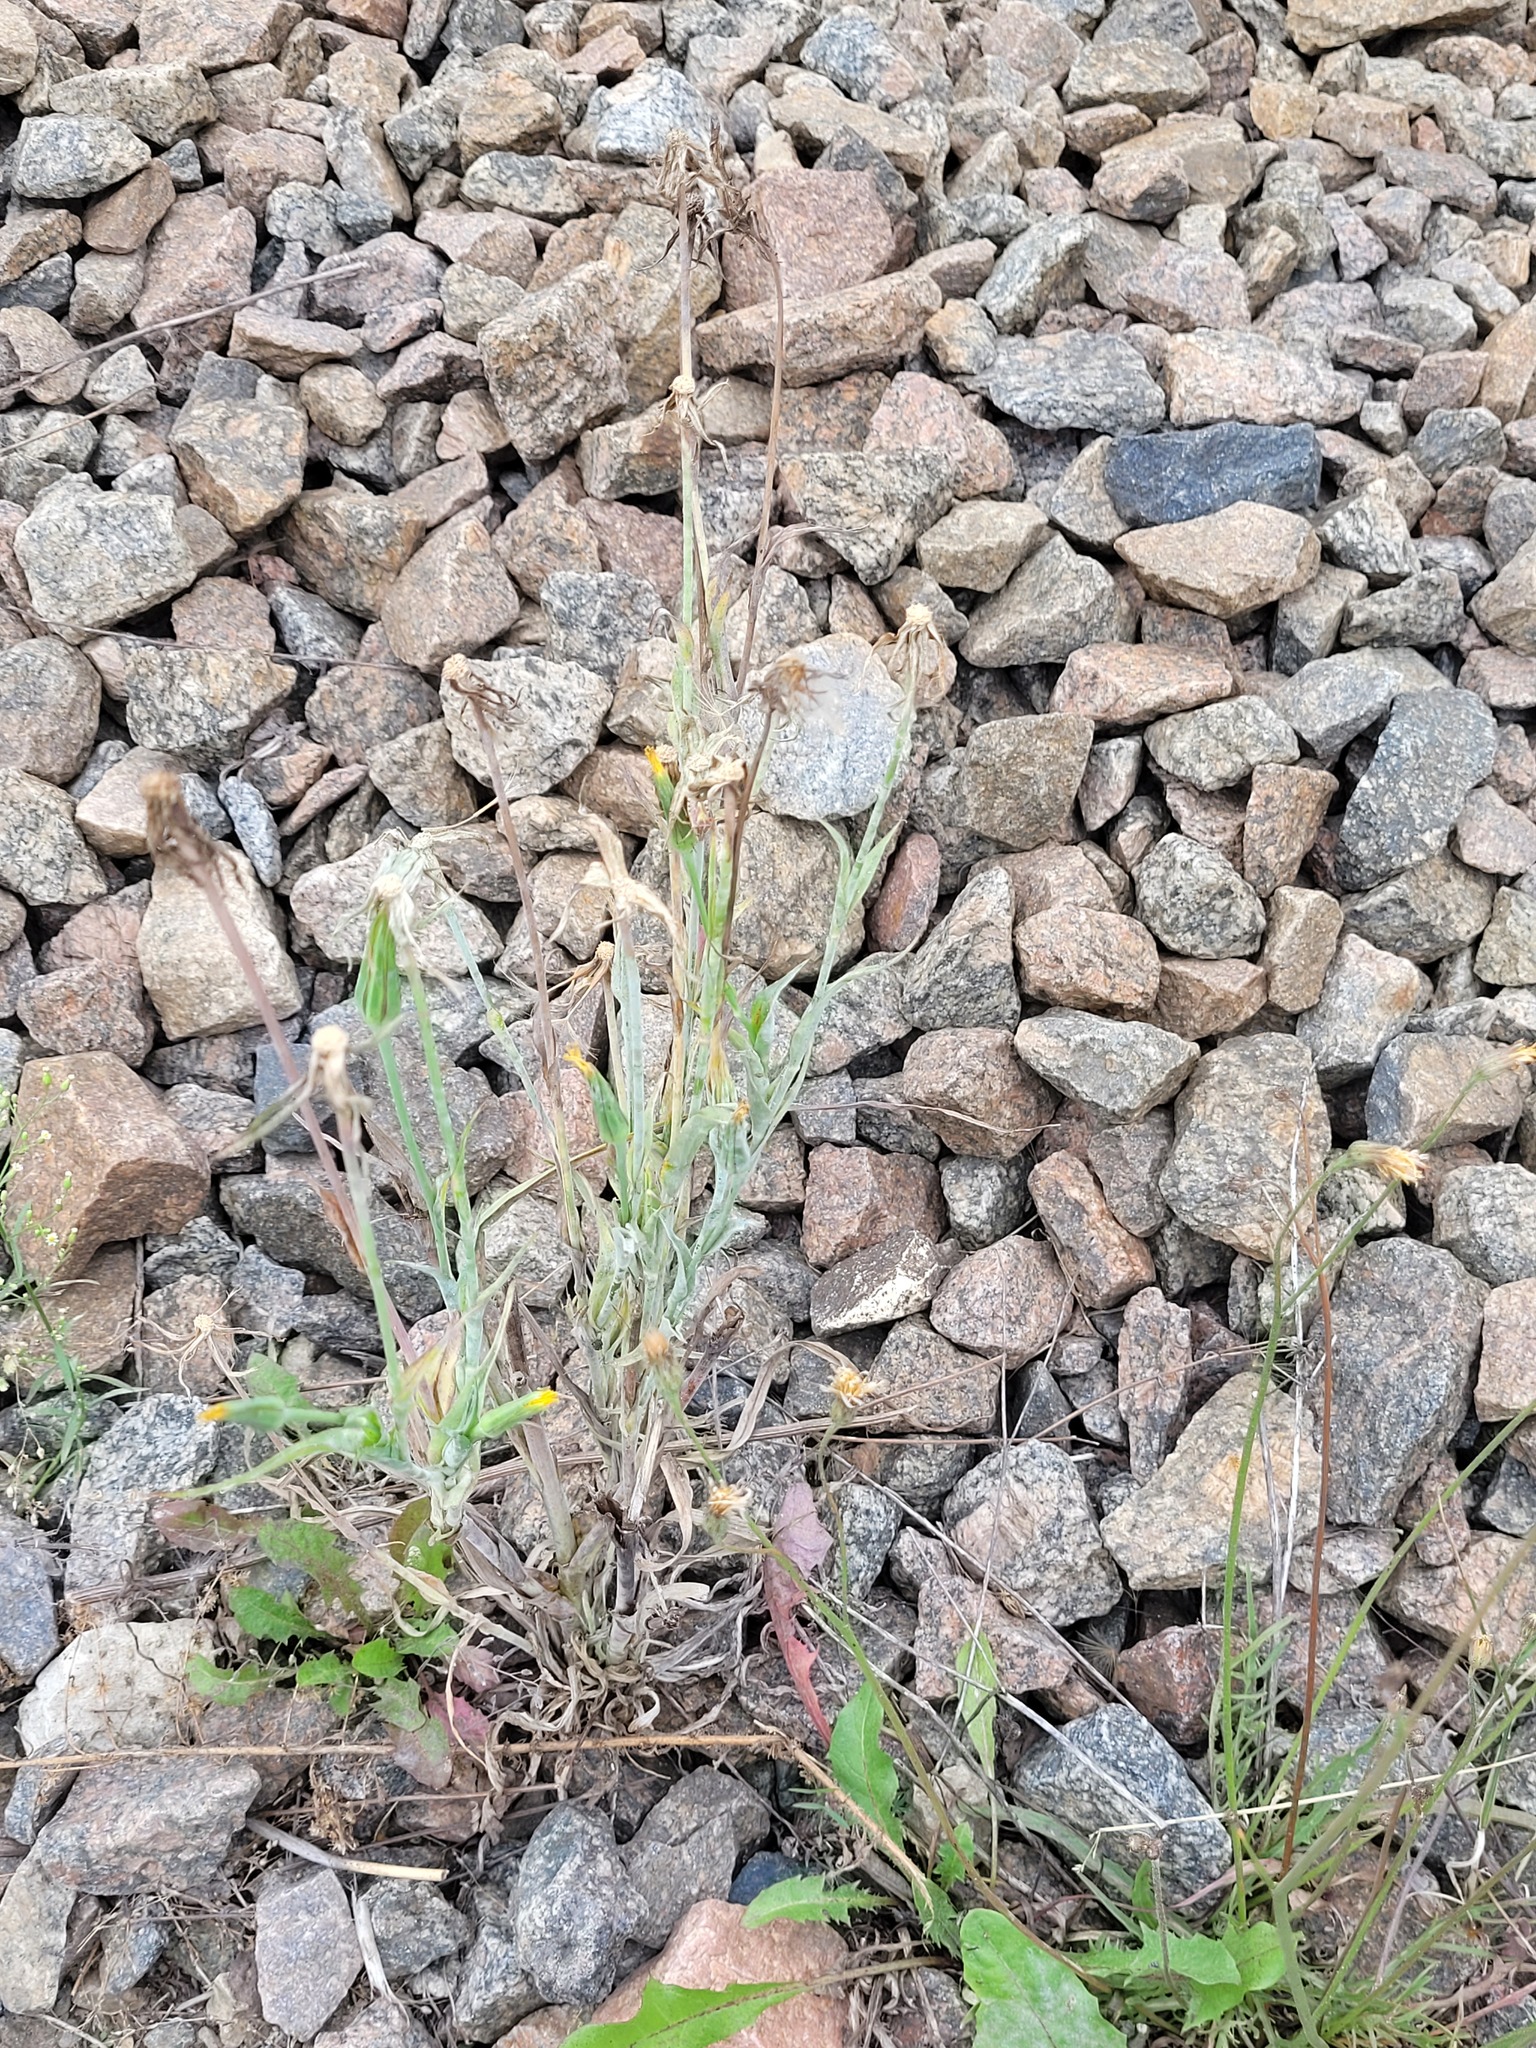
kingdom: Plantae
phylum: Tracheophyta
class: Magnoliopsida
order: Asterales
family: Asteraceae
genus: Tragopogon
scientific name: Tragopogon dubius
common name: Yellow salsify
